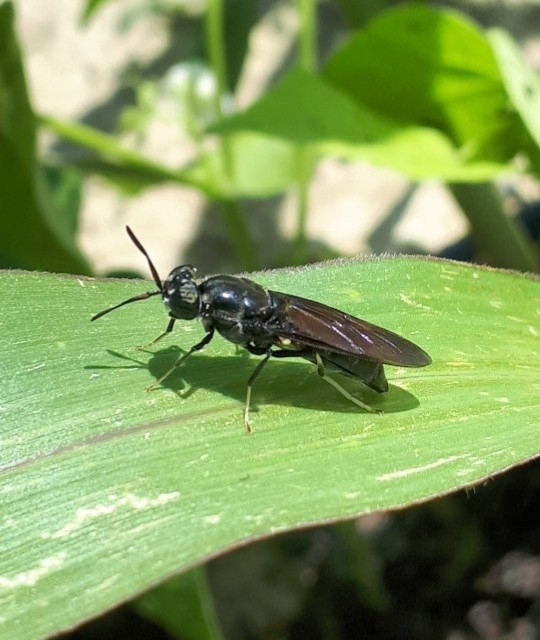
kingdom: Animalia
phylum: Arthropoda
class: Insecta
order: Diptera
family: Stratiomyidae
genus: Hermetia
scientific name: Hermetia illucens
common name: Black soldier fly
